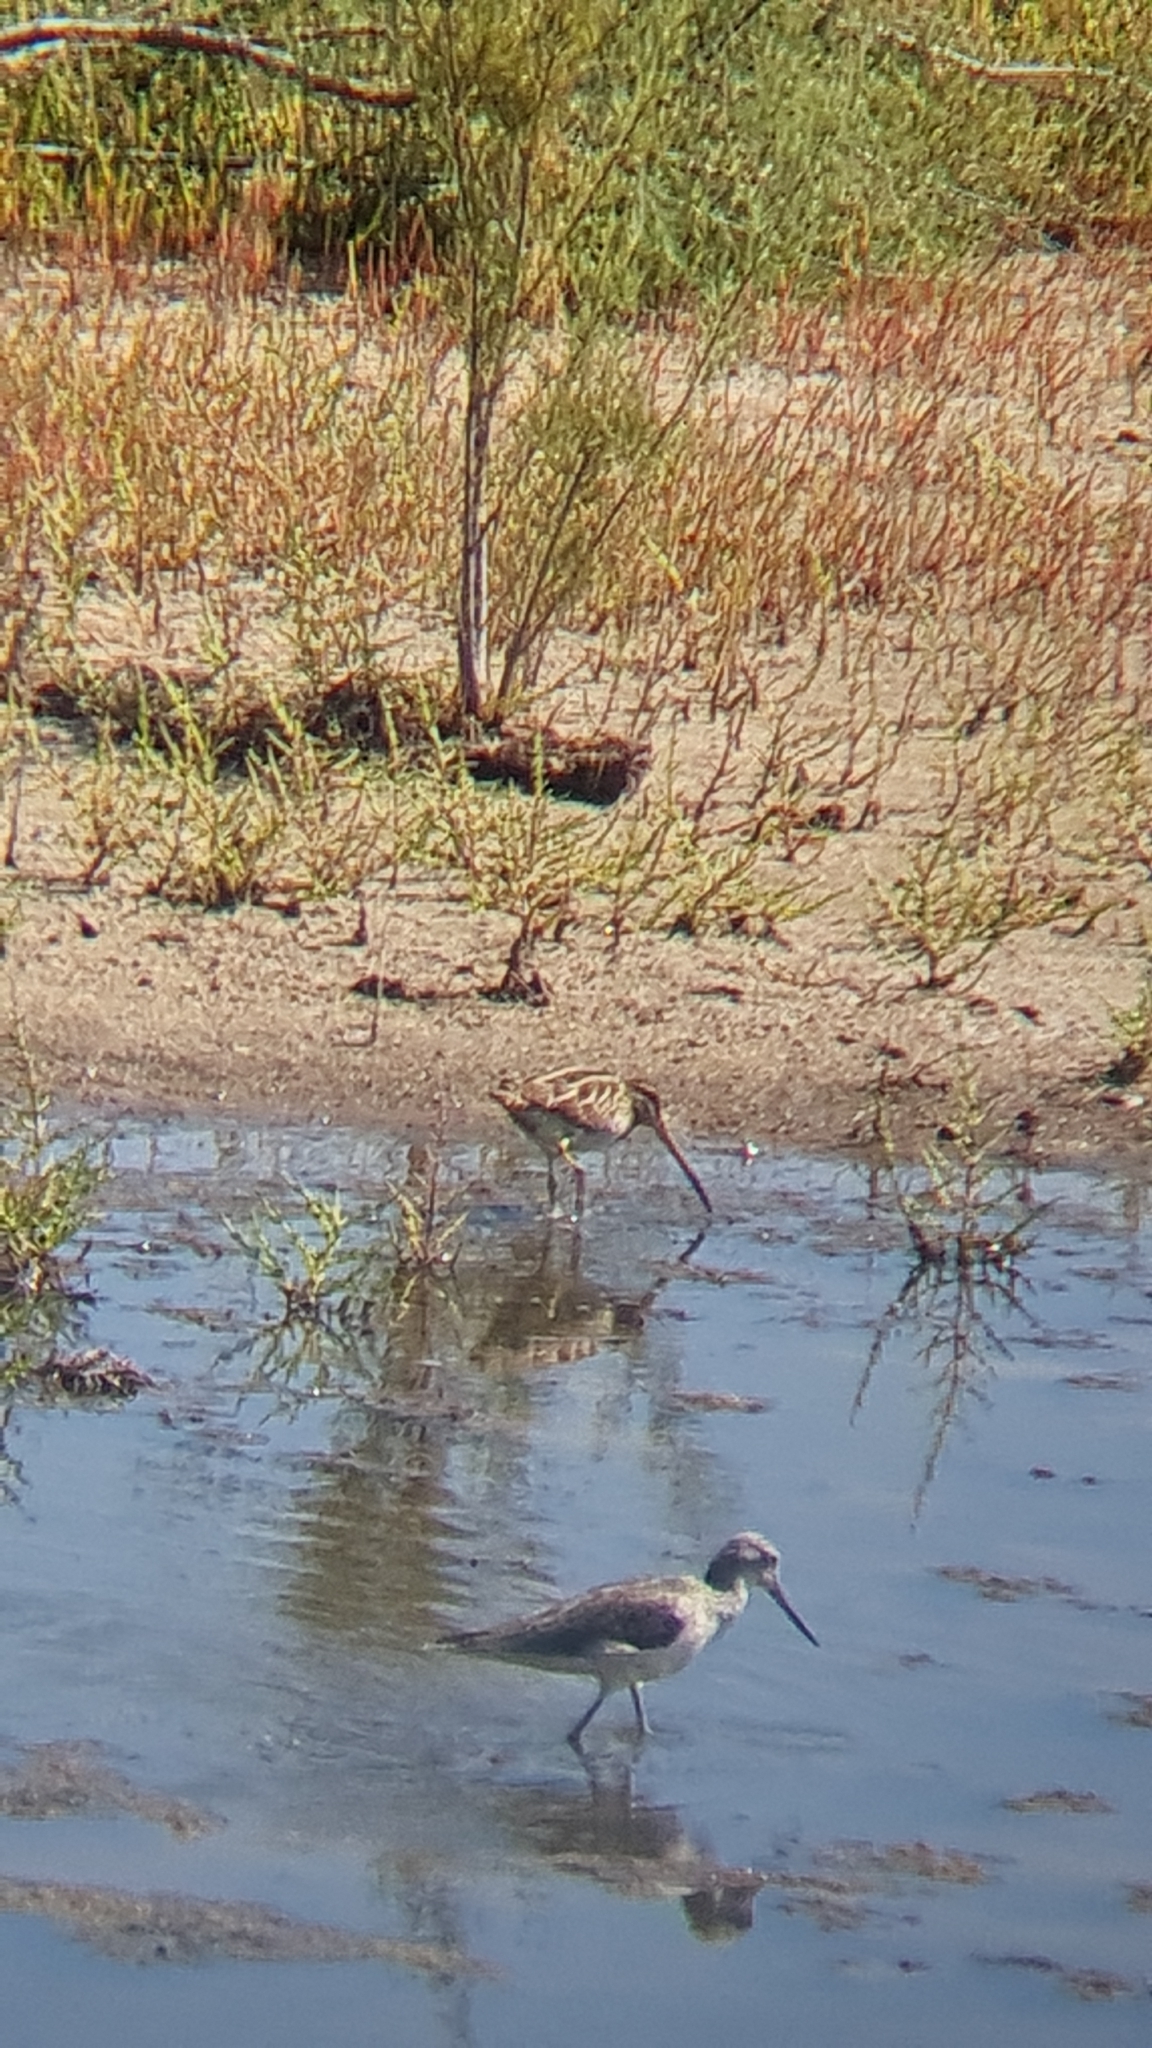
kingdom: Animalia
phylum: Chordata
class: Aves
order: Charadriiformes
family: Scolopacidae
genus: Gallinago
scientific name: Gallinago gallinago
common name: Common snipe
